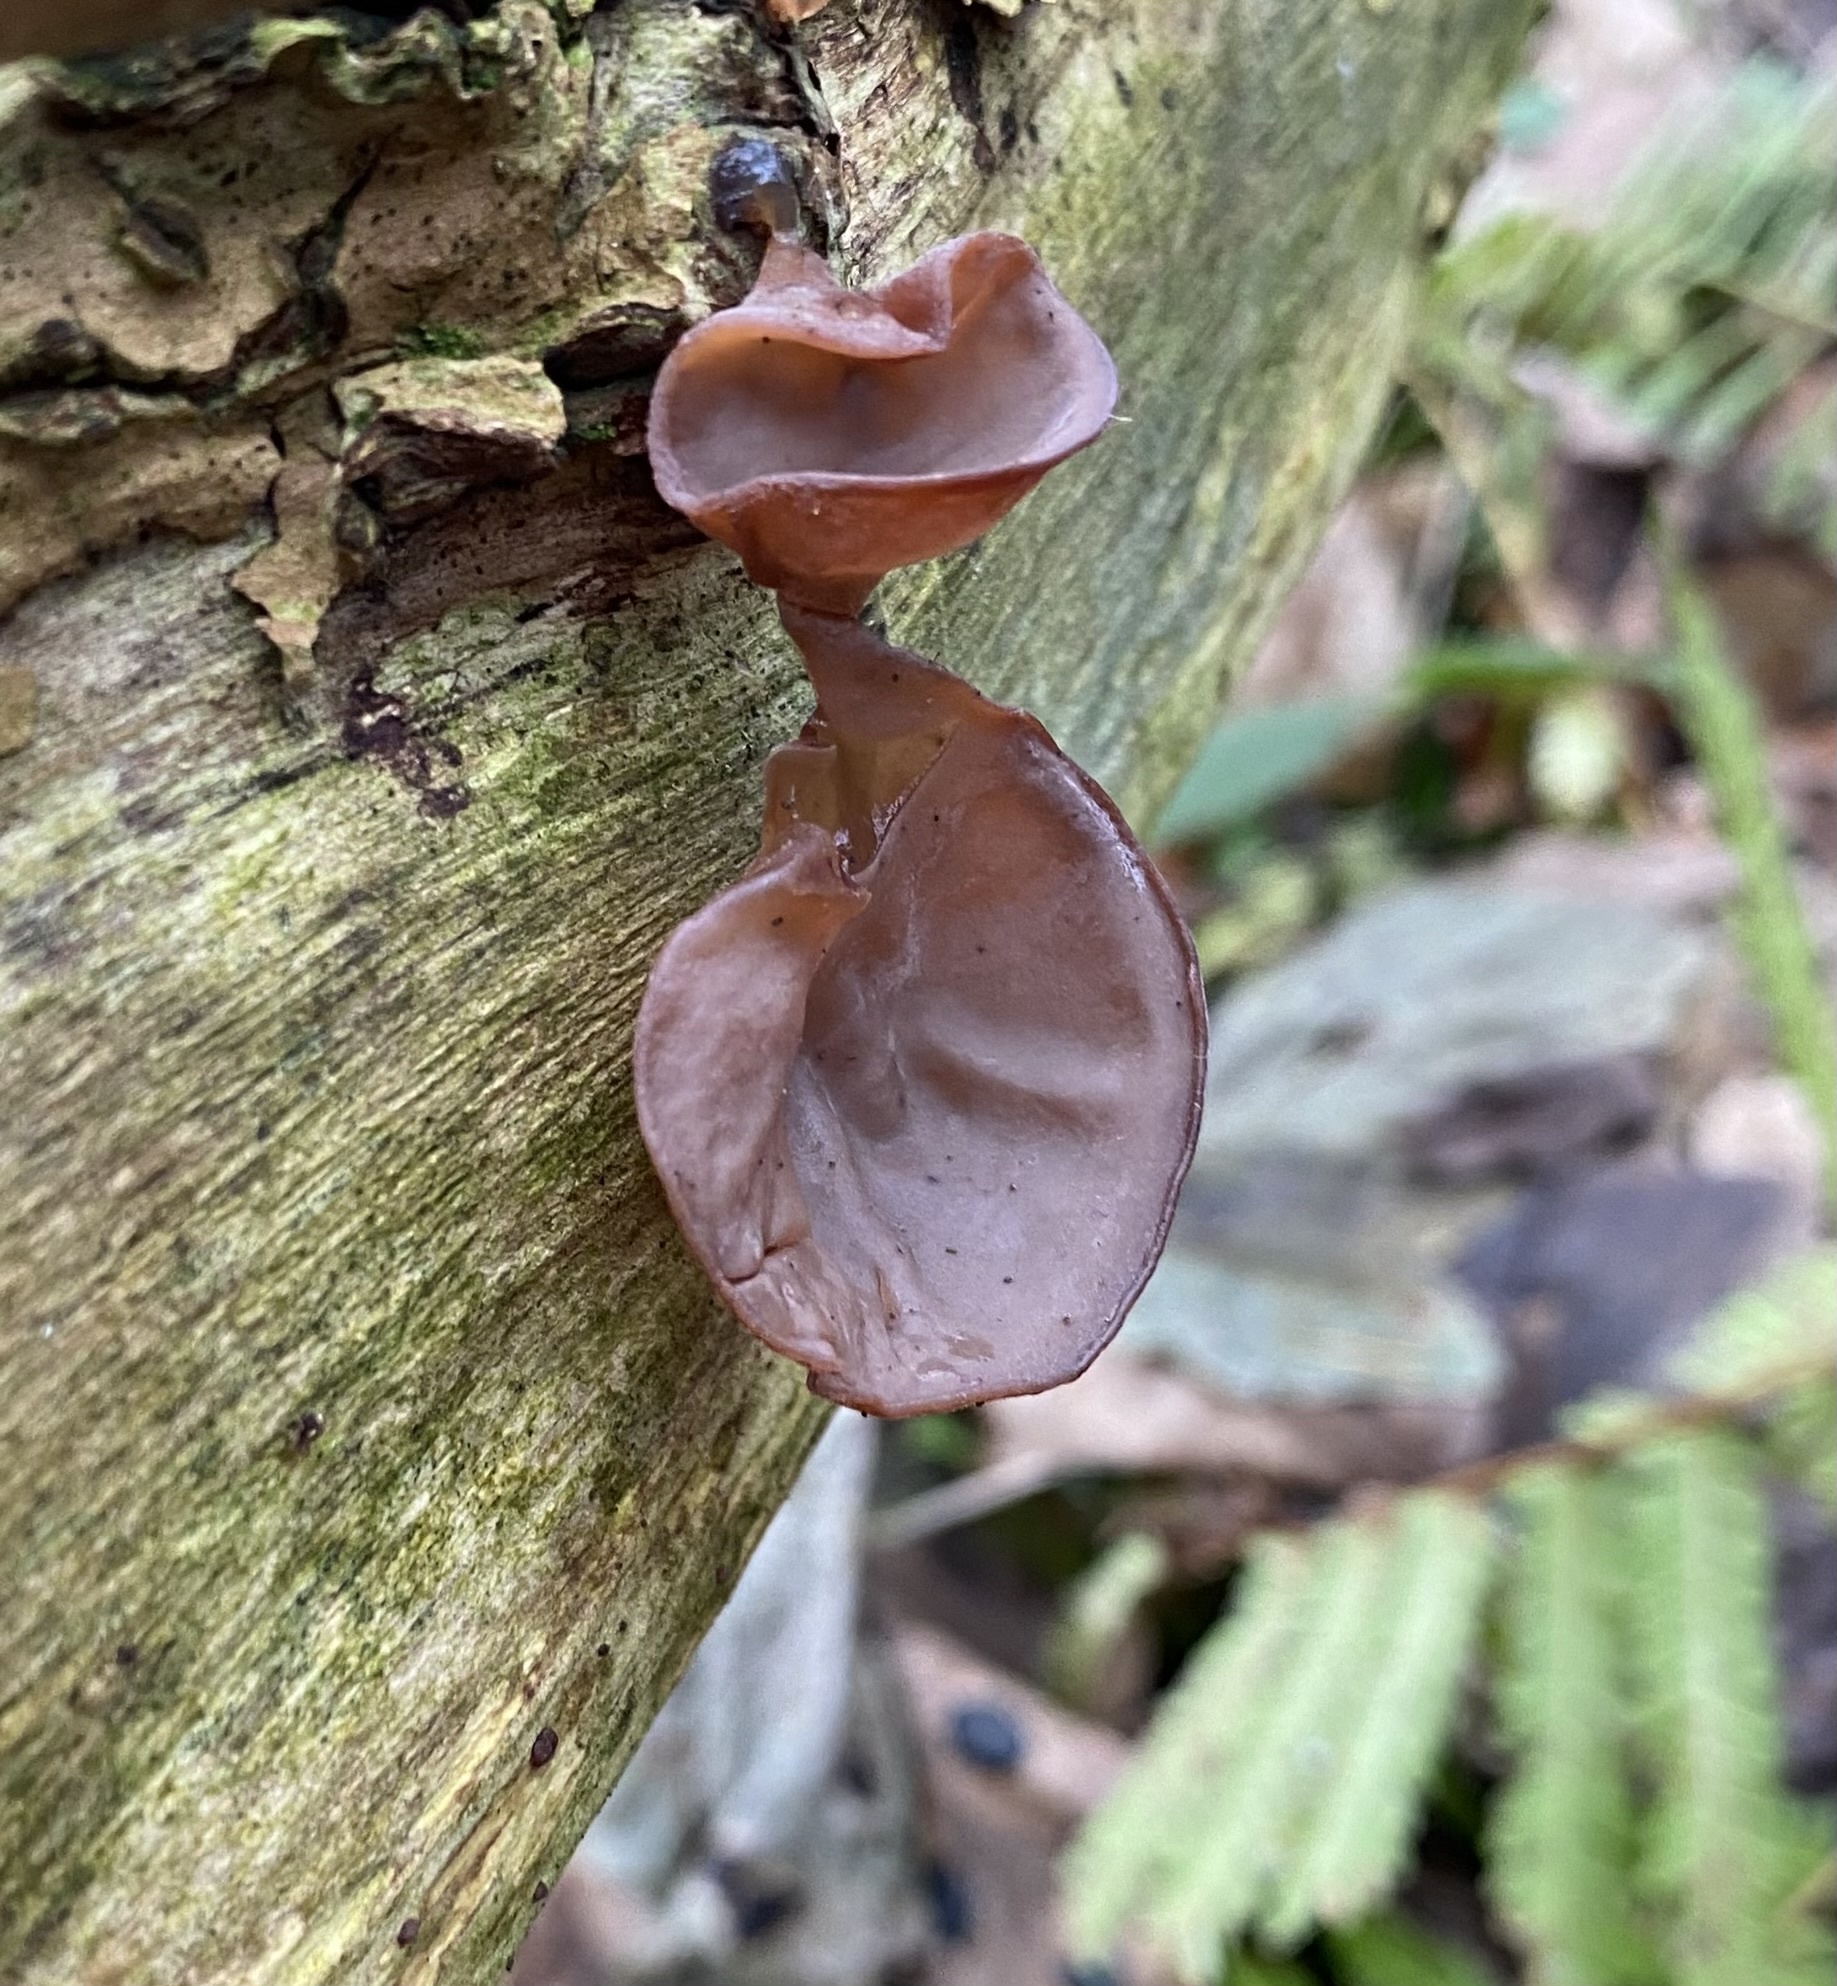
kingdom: Fungi
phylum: Basidiomycota
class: Agaricomycetes
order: Auriculariales
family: Auriculariaceae
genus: Auricularia
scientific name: Auricularia auricula-judae
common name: Jelly ear
